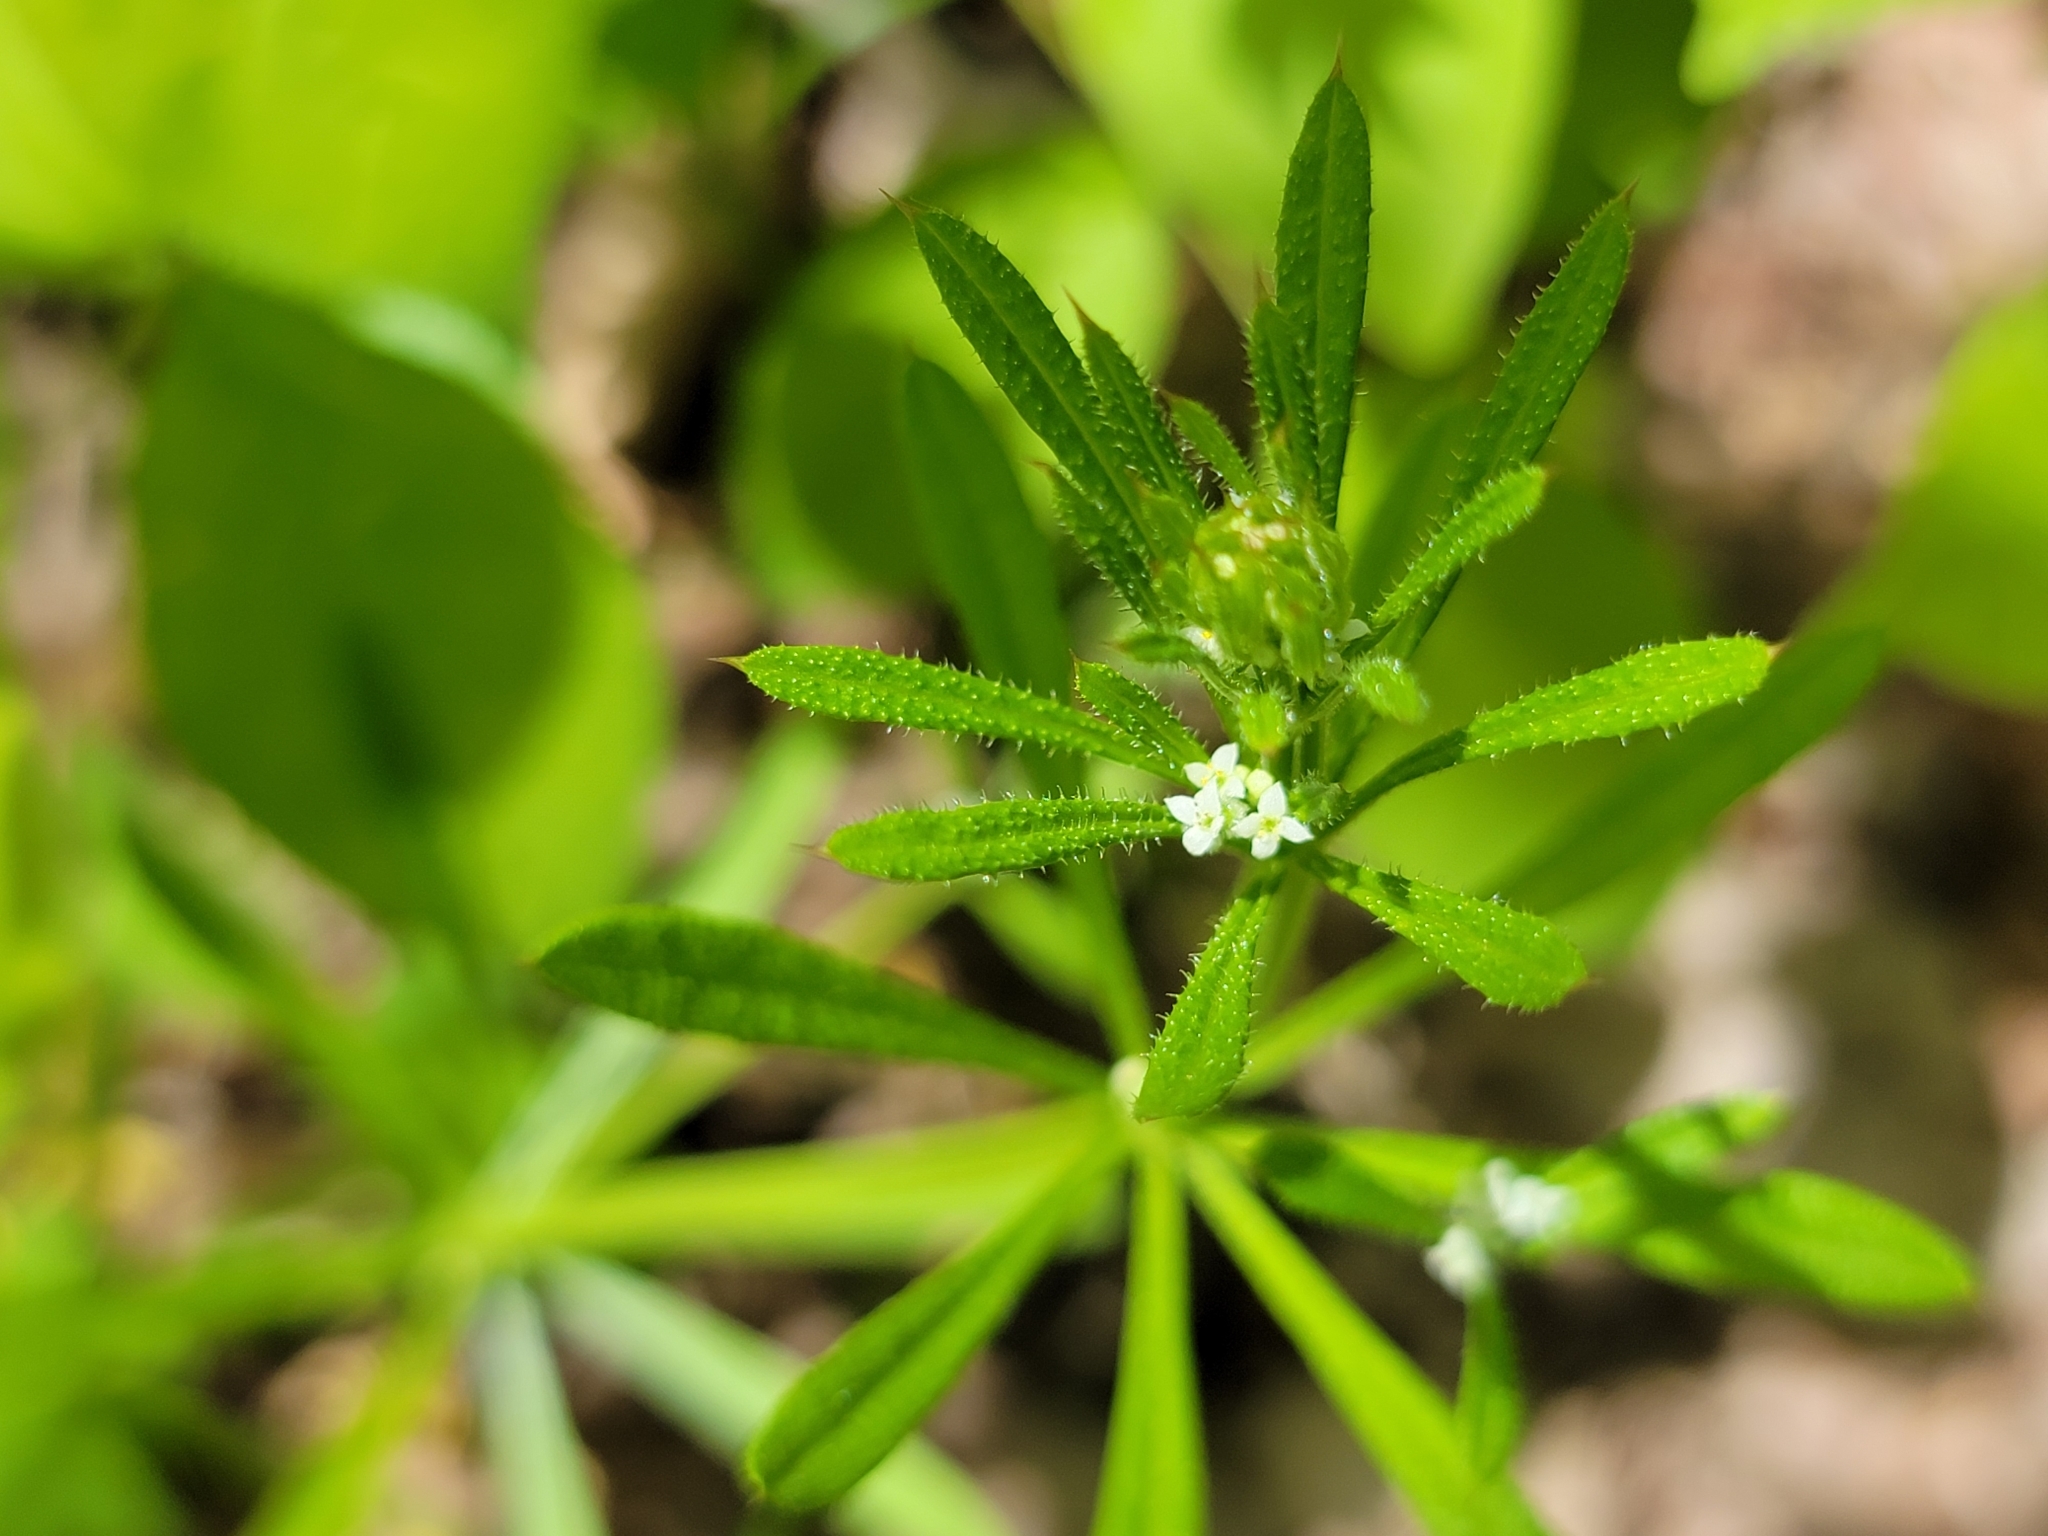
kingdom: Plantae
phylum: Tracheophyta
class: Magnoliopsida
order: Gentianales
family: Rubiaceae
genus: Galium
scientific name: Galium aparine
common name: Cleavers
